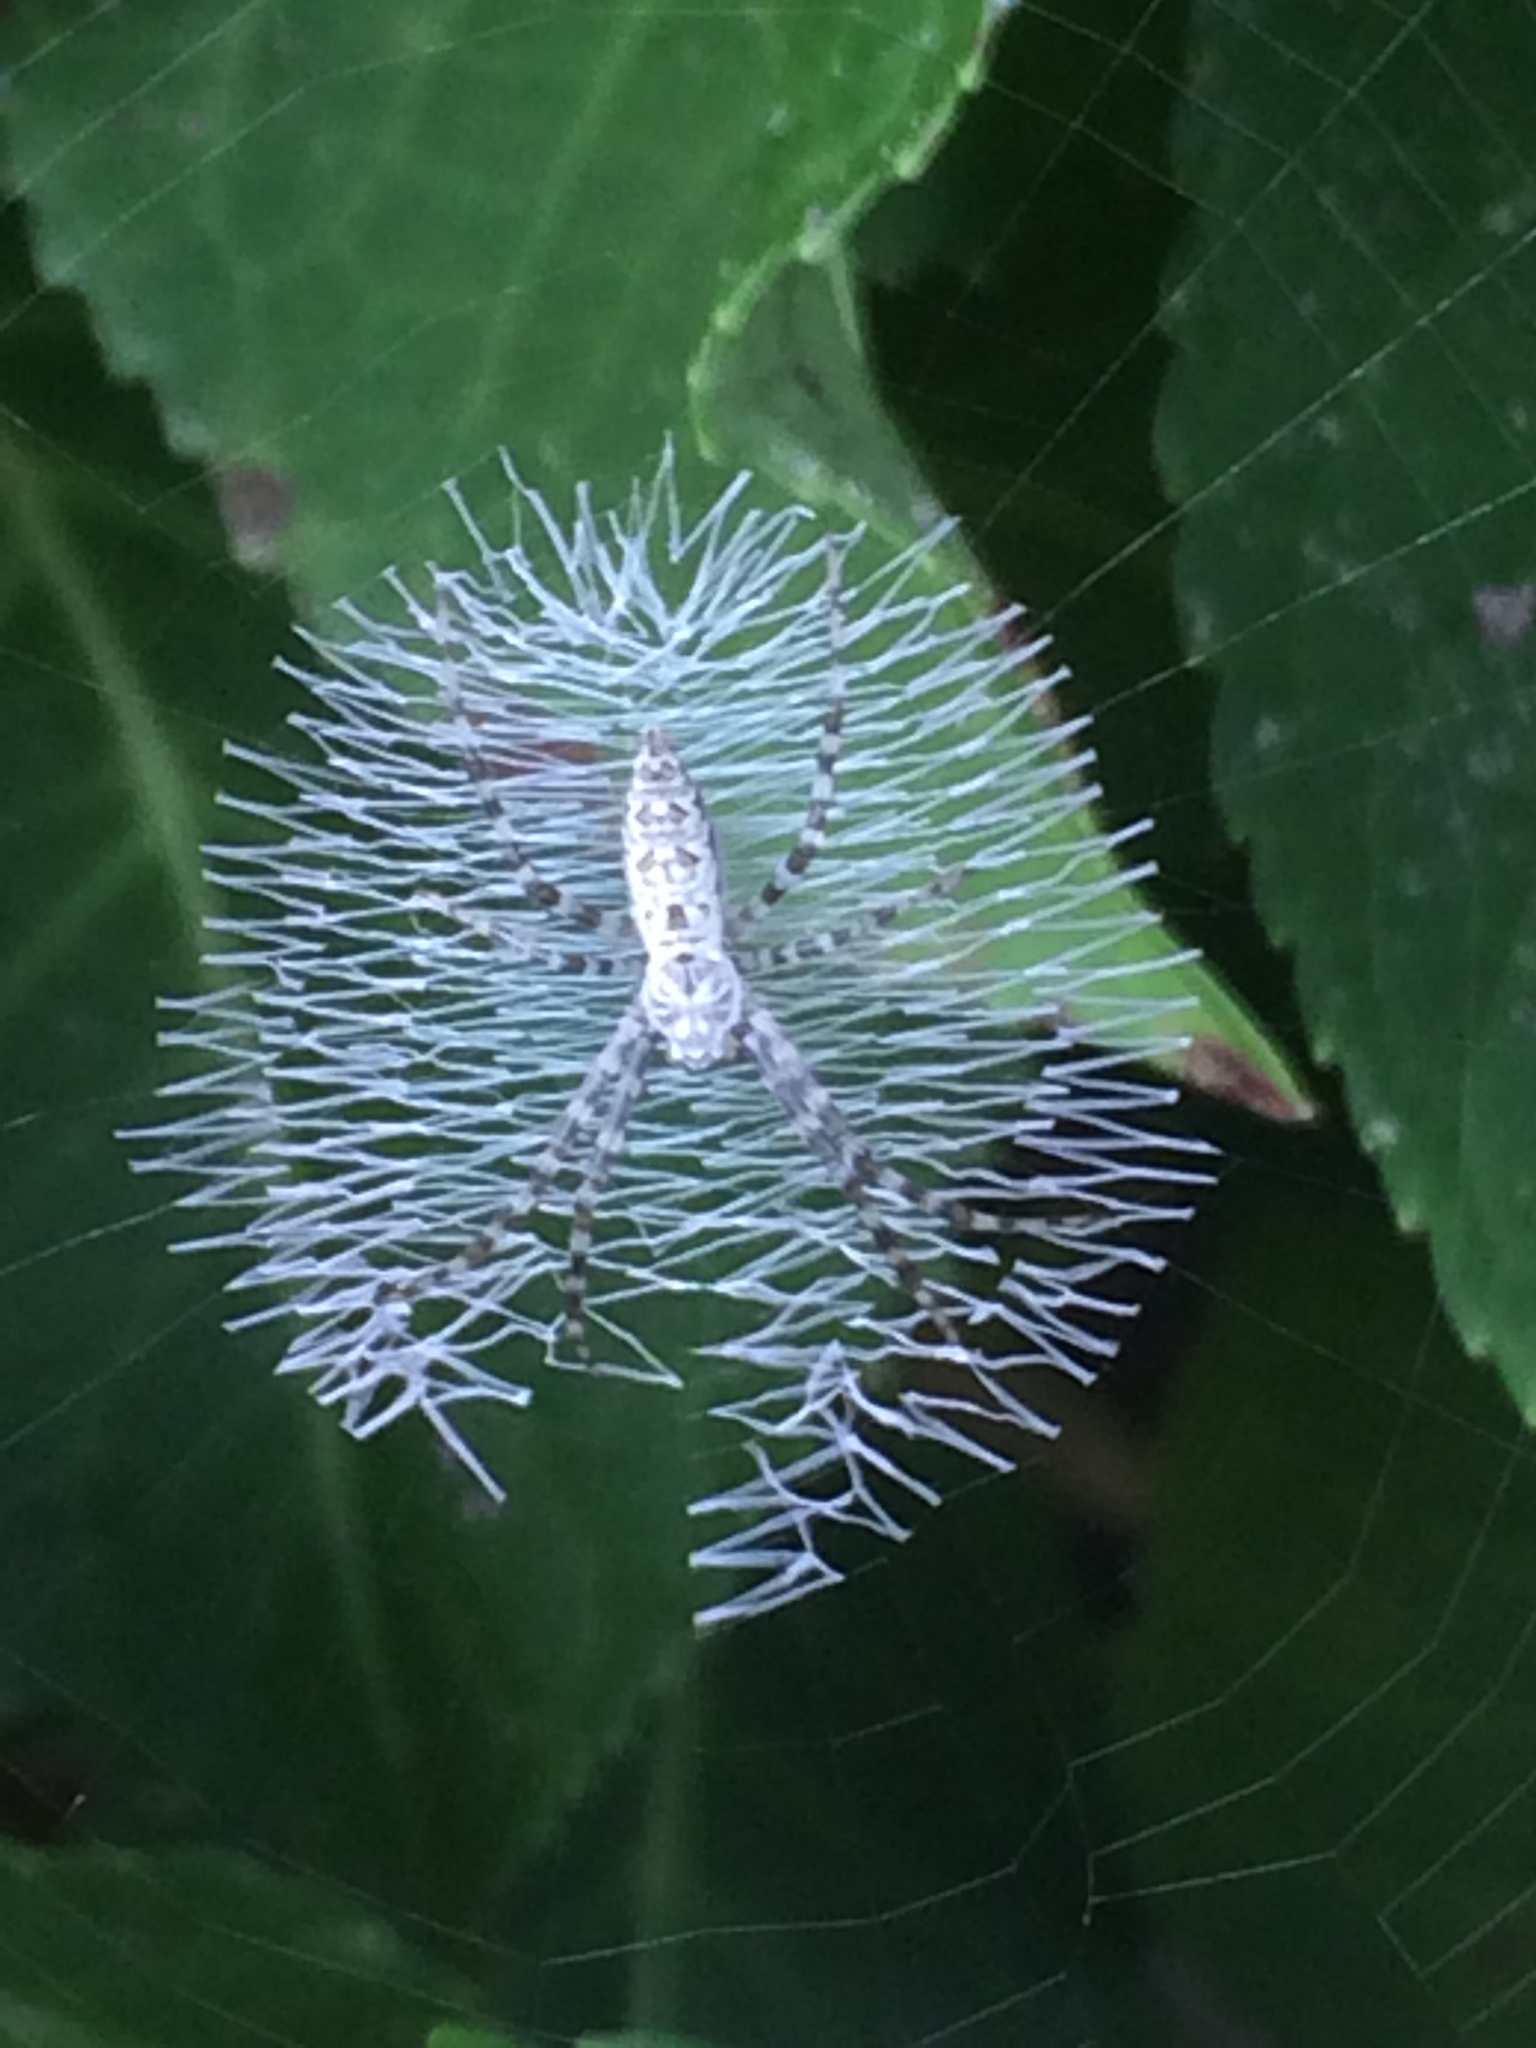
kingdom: Animalia
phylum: Arthropoda
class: Arachnida
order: Araneae
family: Araneidae
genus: Argiope
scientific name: Argiope aurantia
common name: Orb weavers
